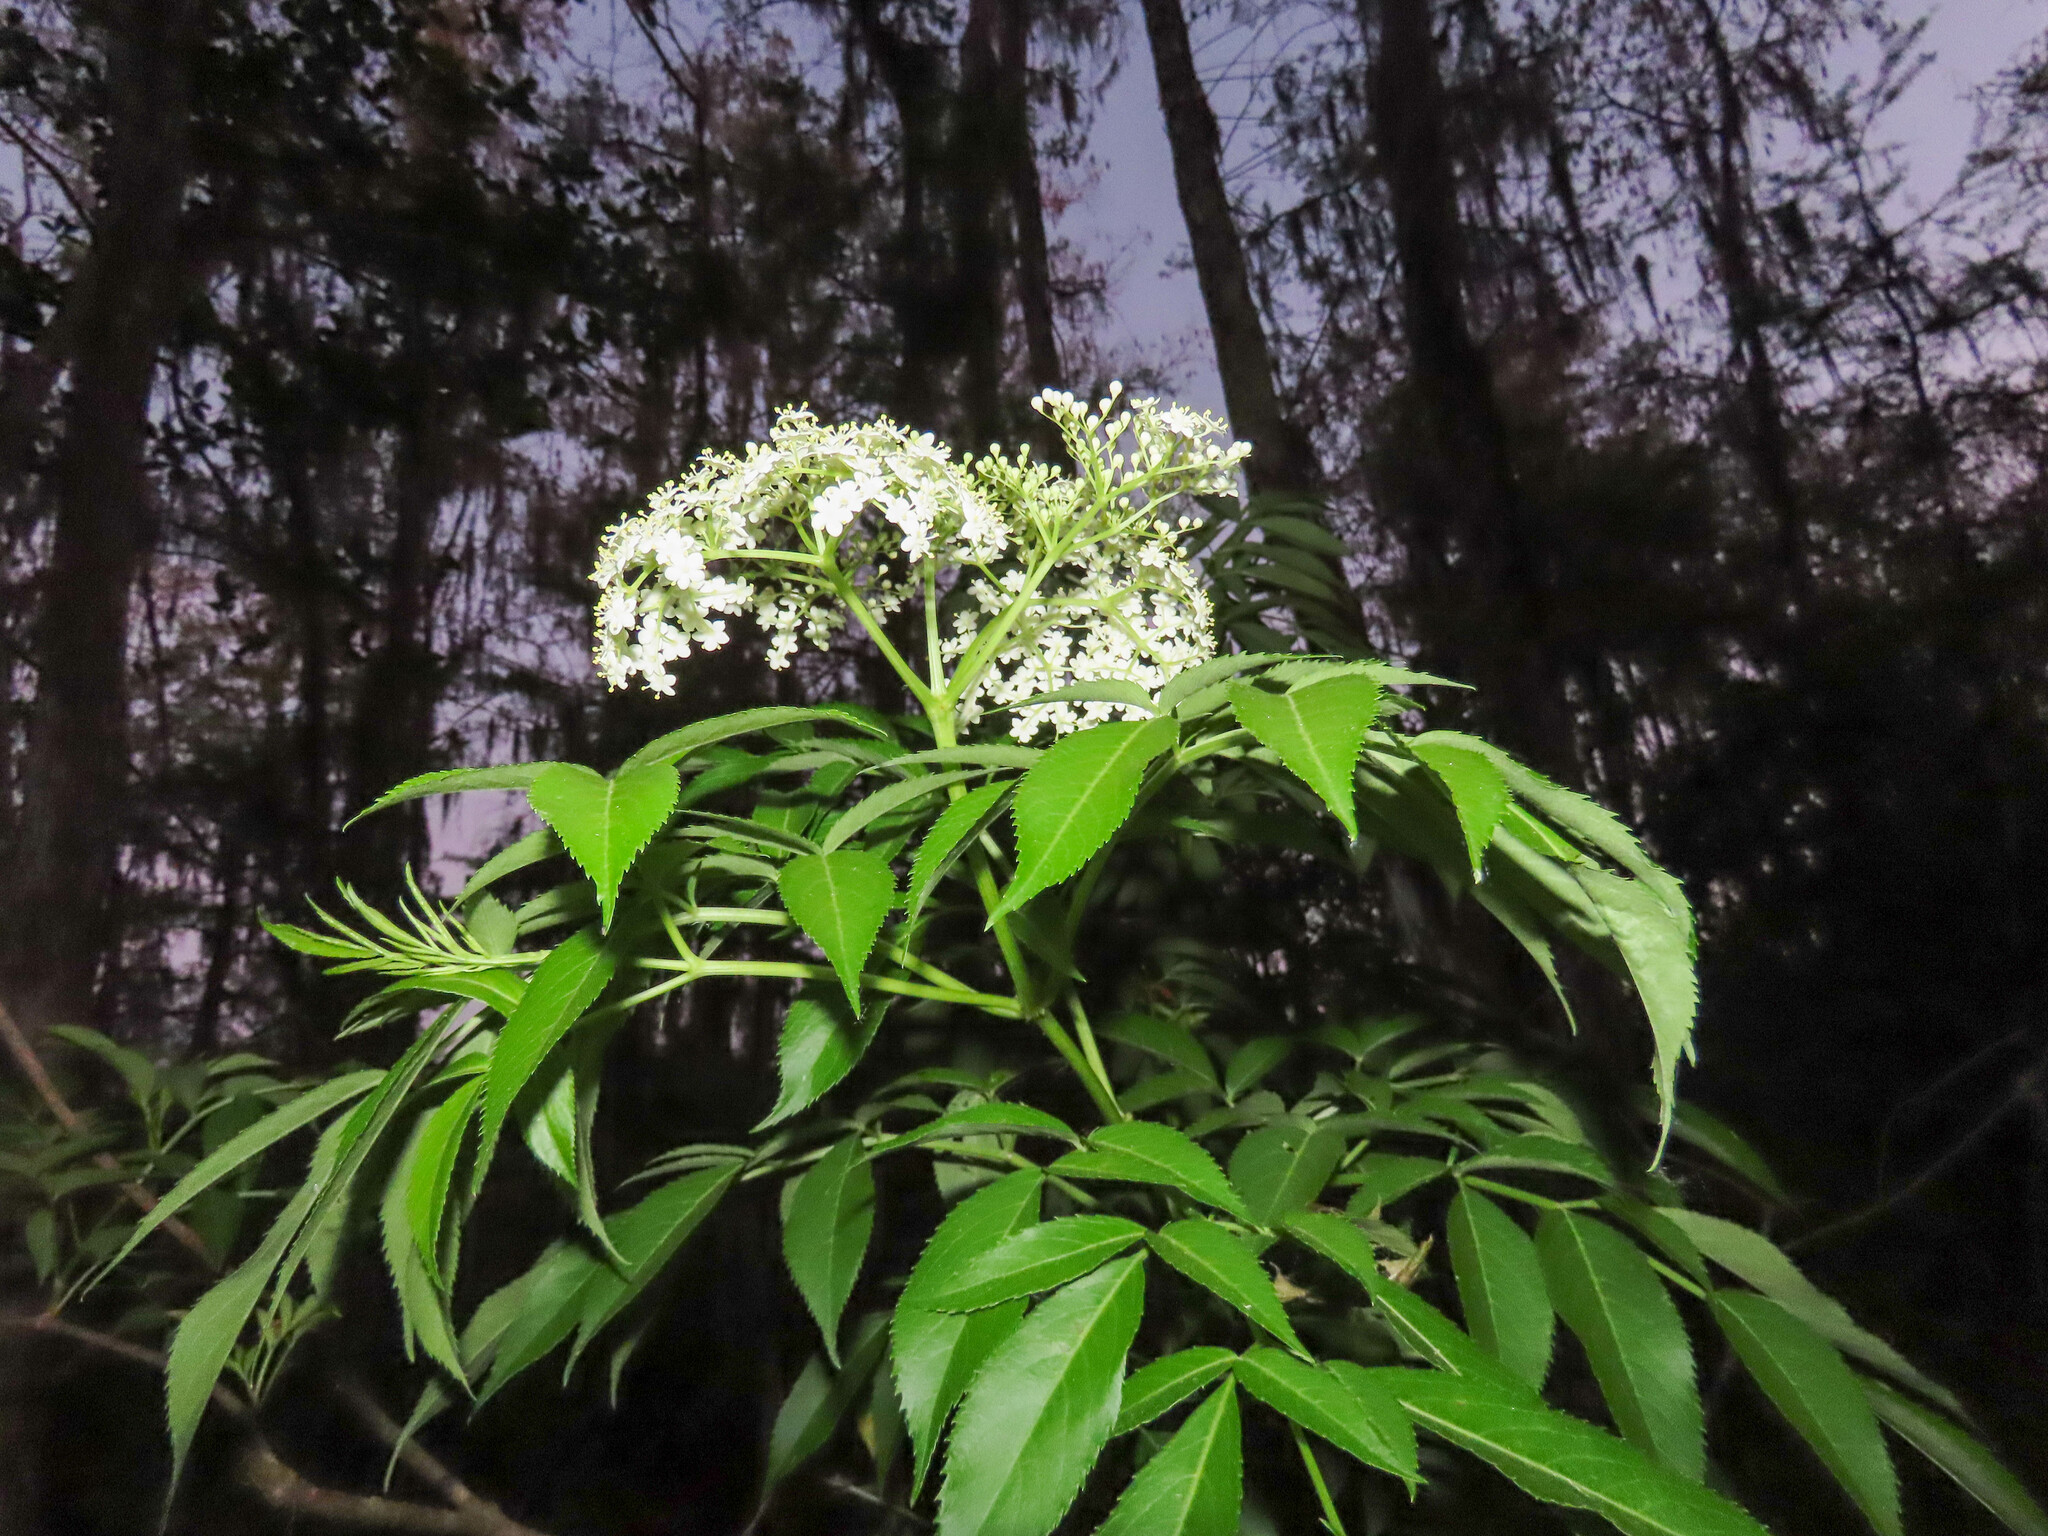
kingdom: Plantae
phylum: Tracheophyta
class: Magnoliopsida
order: Dipsacales
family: Viburnaceae
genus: Sambucus
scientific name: Sambucus canadensis
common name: American elder
